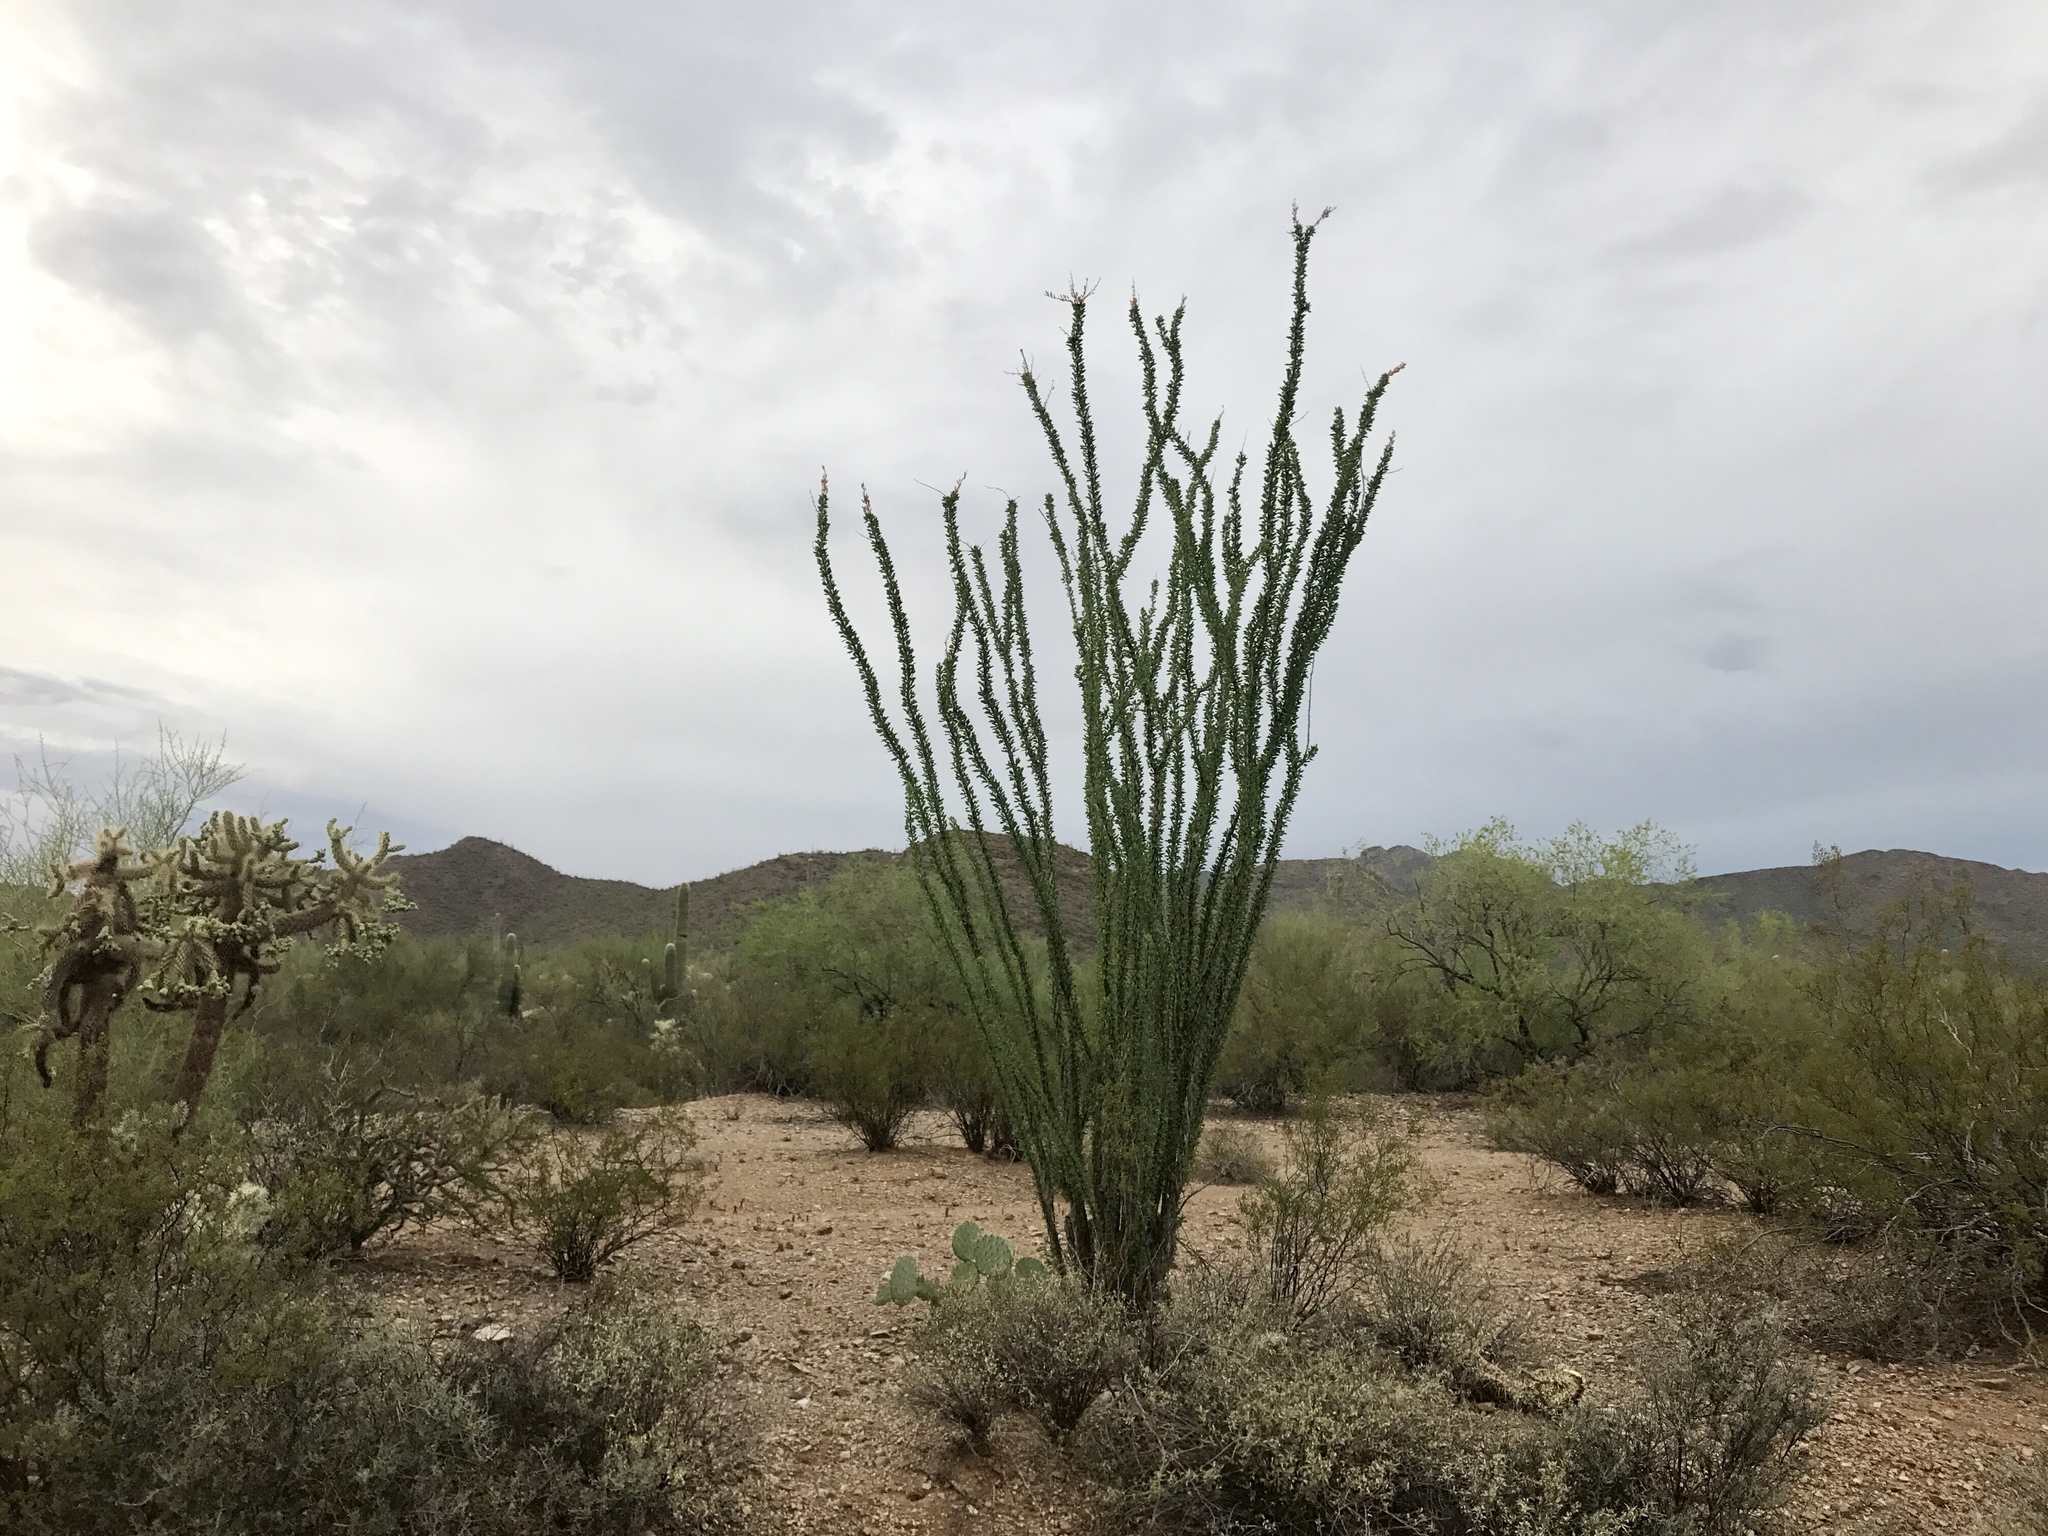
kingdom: Plantae
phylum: Tracheophyta
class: Magnoliopsida
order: Ericales
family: Fouquieriaceae
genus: Fouquieria
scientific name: Fouquieria splendens
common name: Vine-cactus
